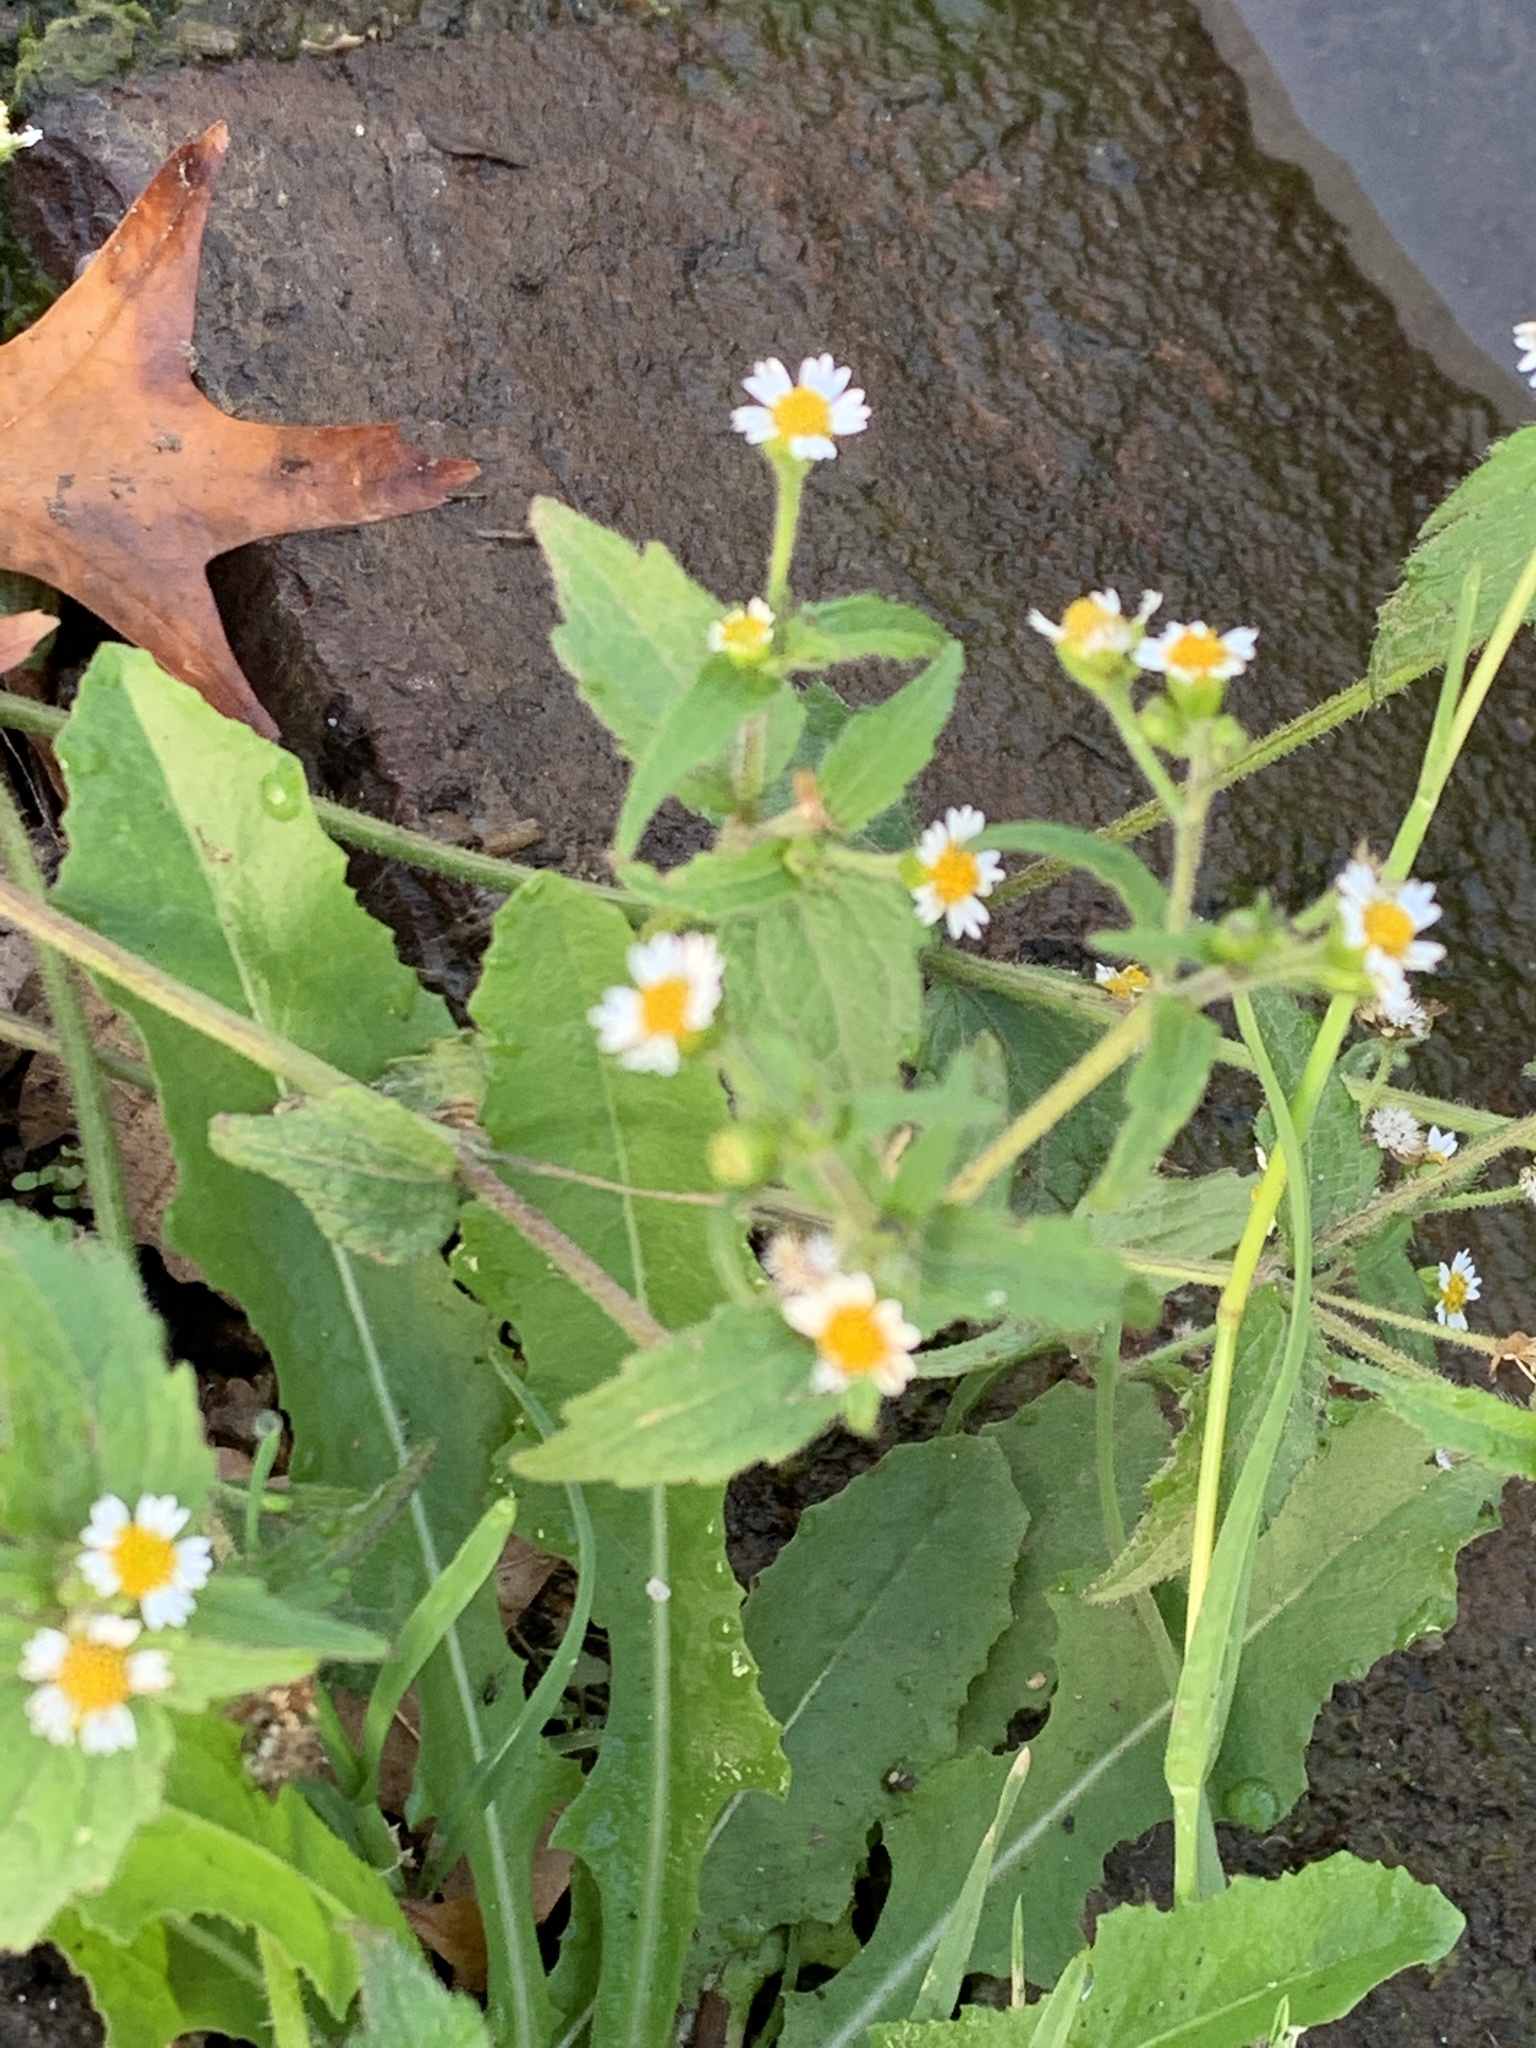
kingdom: Plantae
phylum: Tracheophyta
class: Magnoliopsida
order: Asterales
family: Asteraceae
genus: Galinsoga
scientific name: Galinsoga quadriradiata
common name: Shaggy soldier
